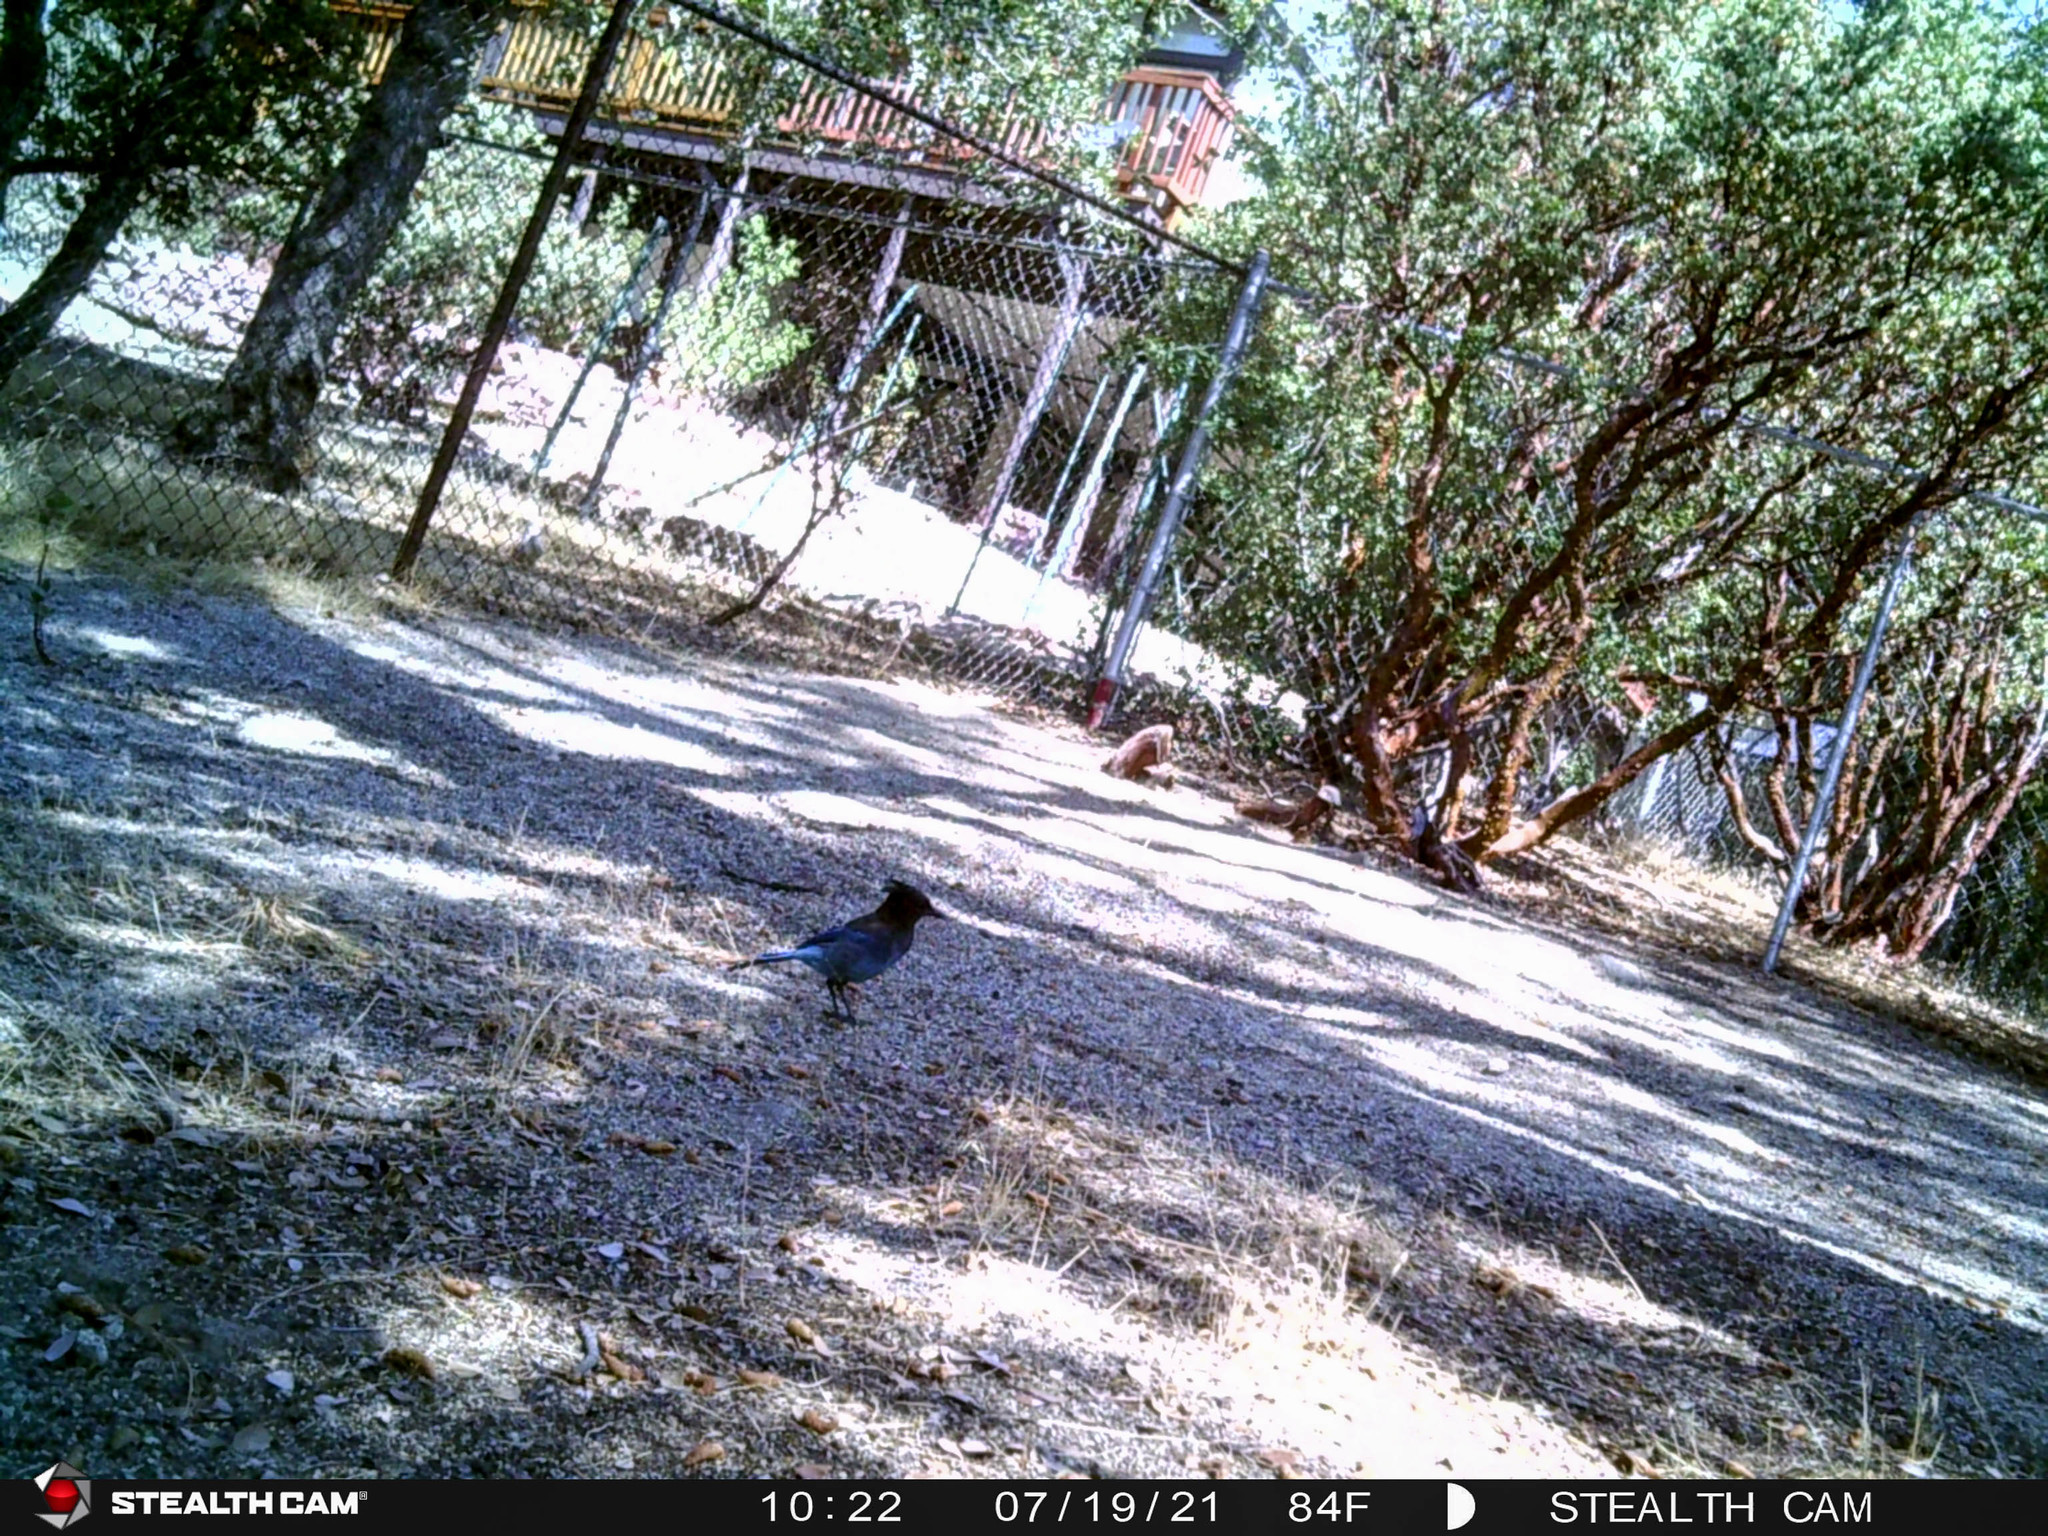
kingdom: Animalia
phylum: Chordata
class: Aves
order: Passeriformes
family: Corvidae
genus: Cyanocitta
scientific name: Cyanocitta stelleri
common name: Steller's jay
